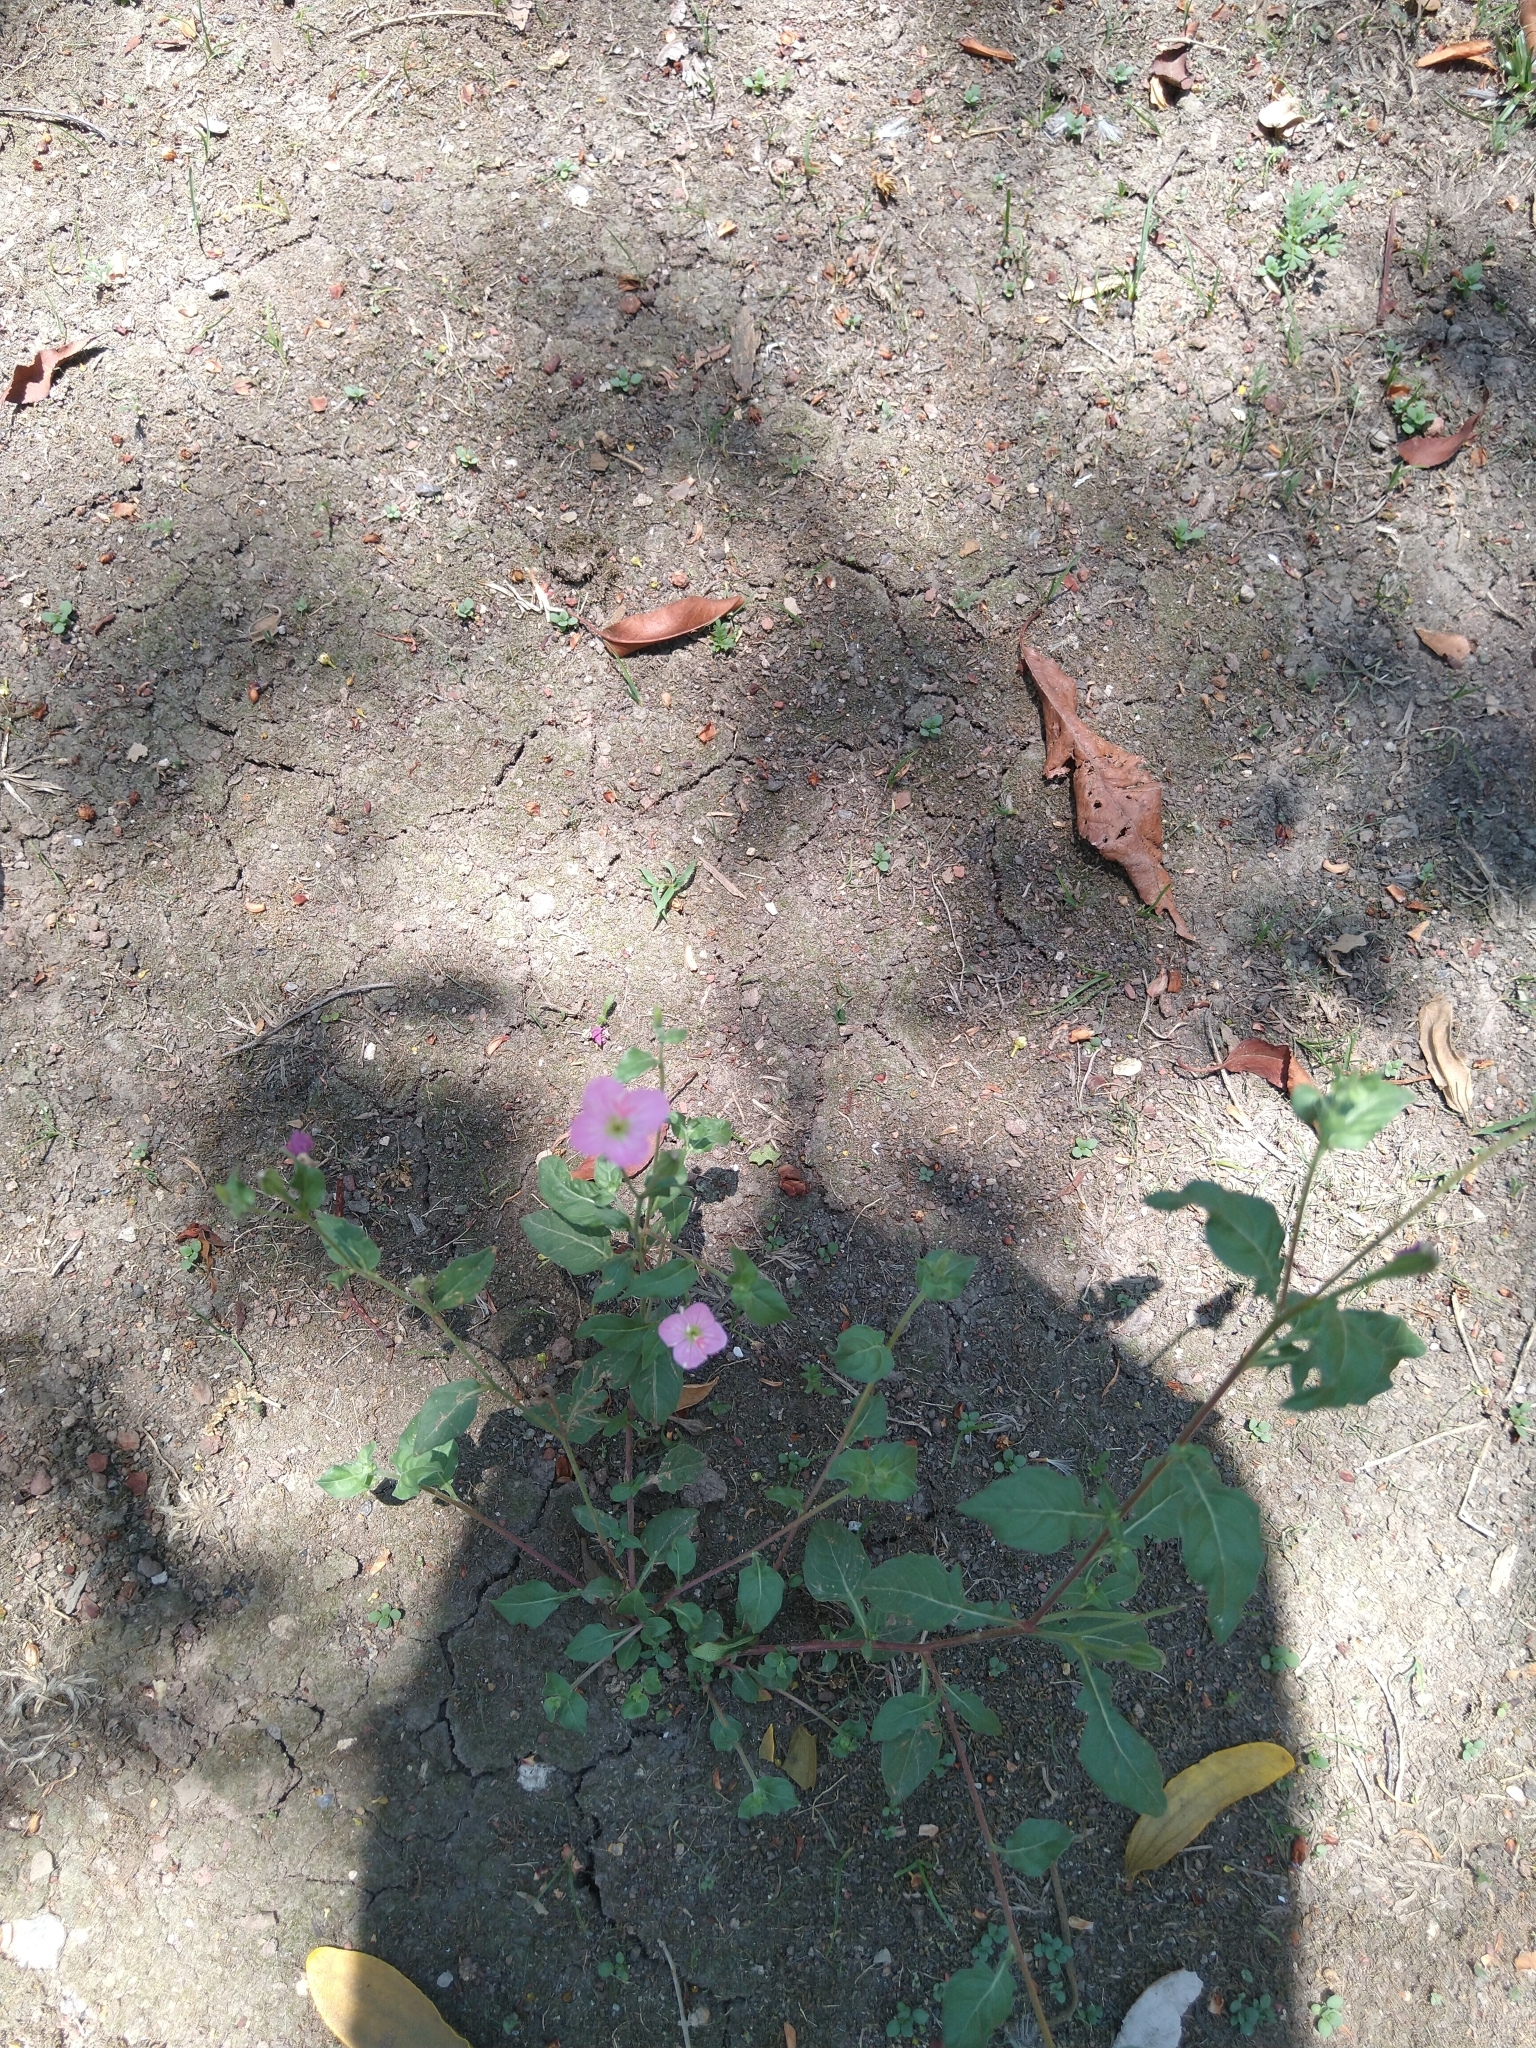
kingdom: Plantae
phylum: Tracheophyta
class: Magnoliopsida
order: Myrtales
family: Onagraceae
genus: Oenothera
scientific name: Oenothera rosea
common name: Rosy evening-primrose
